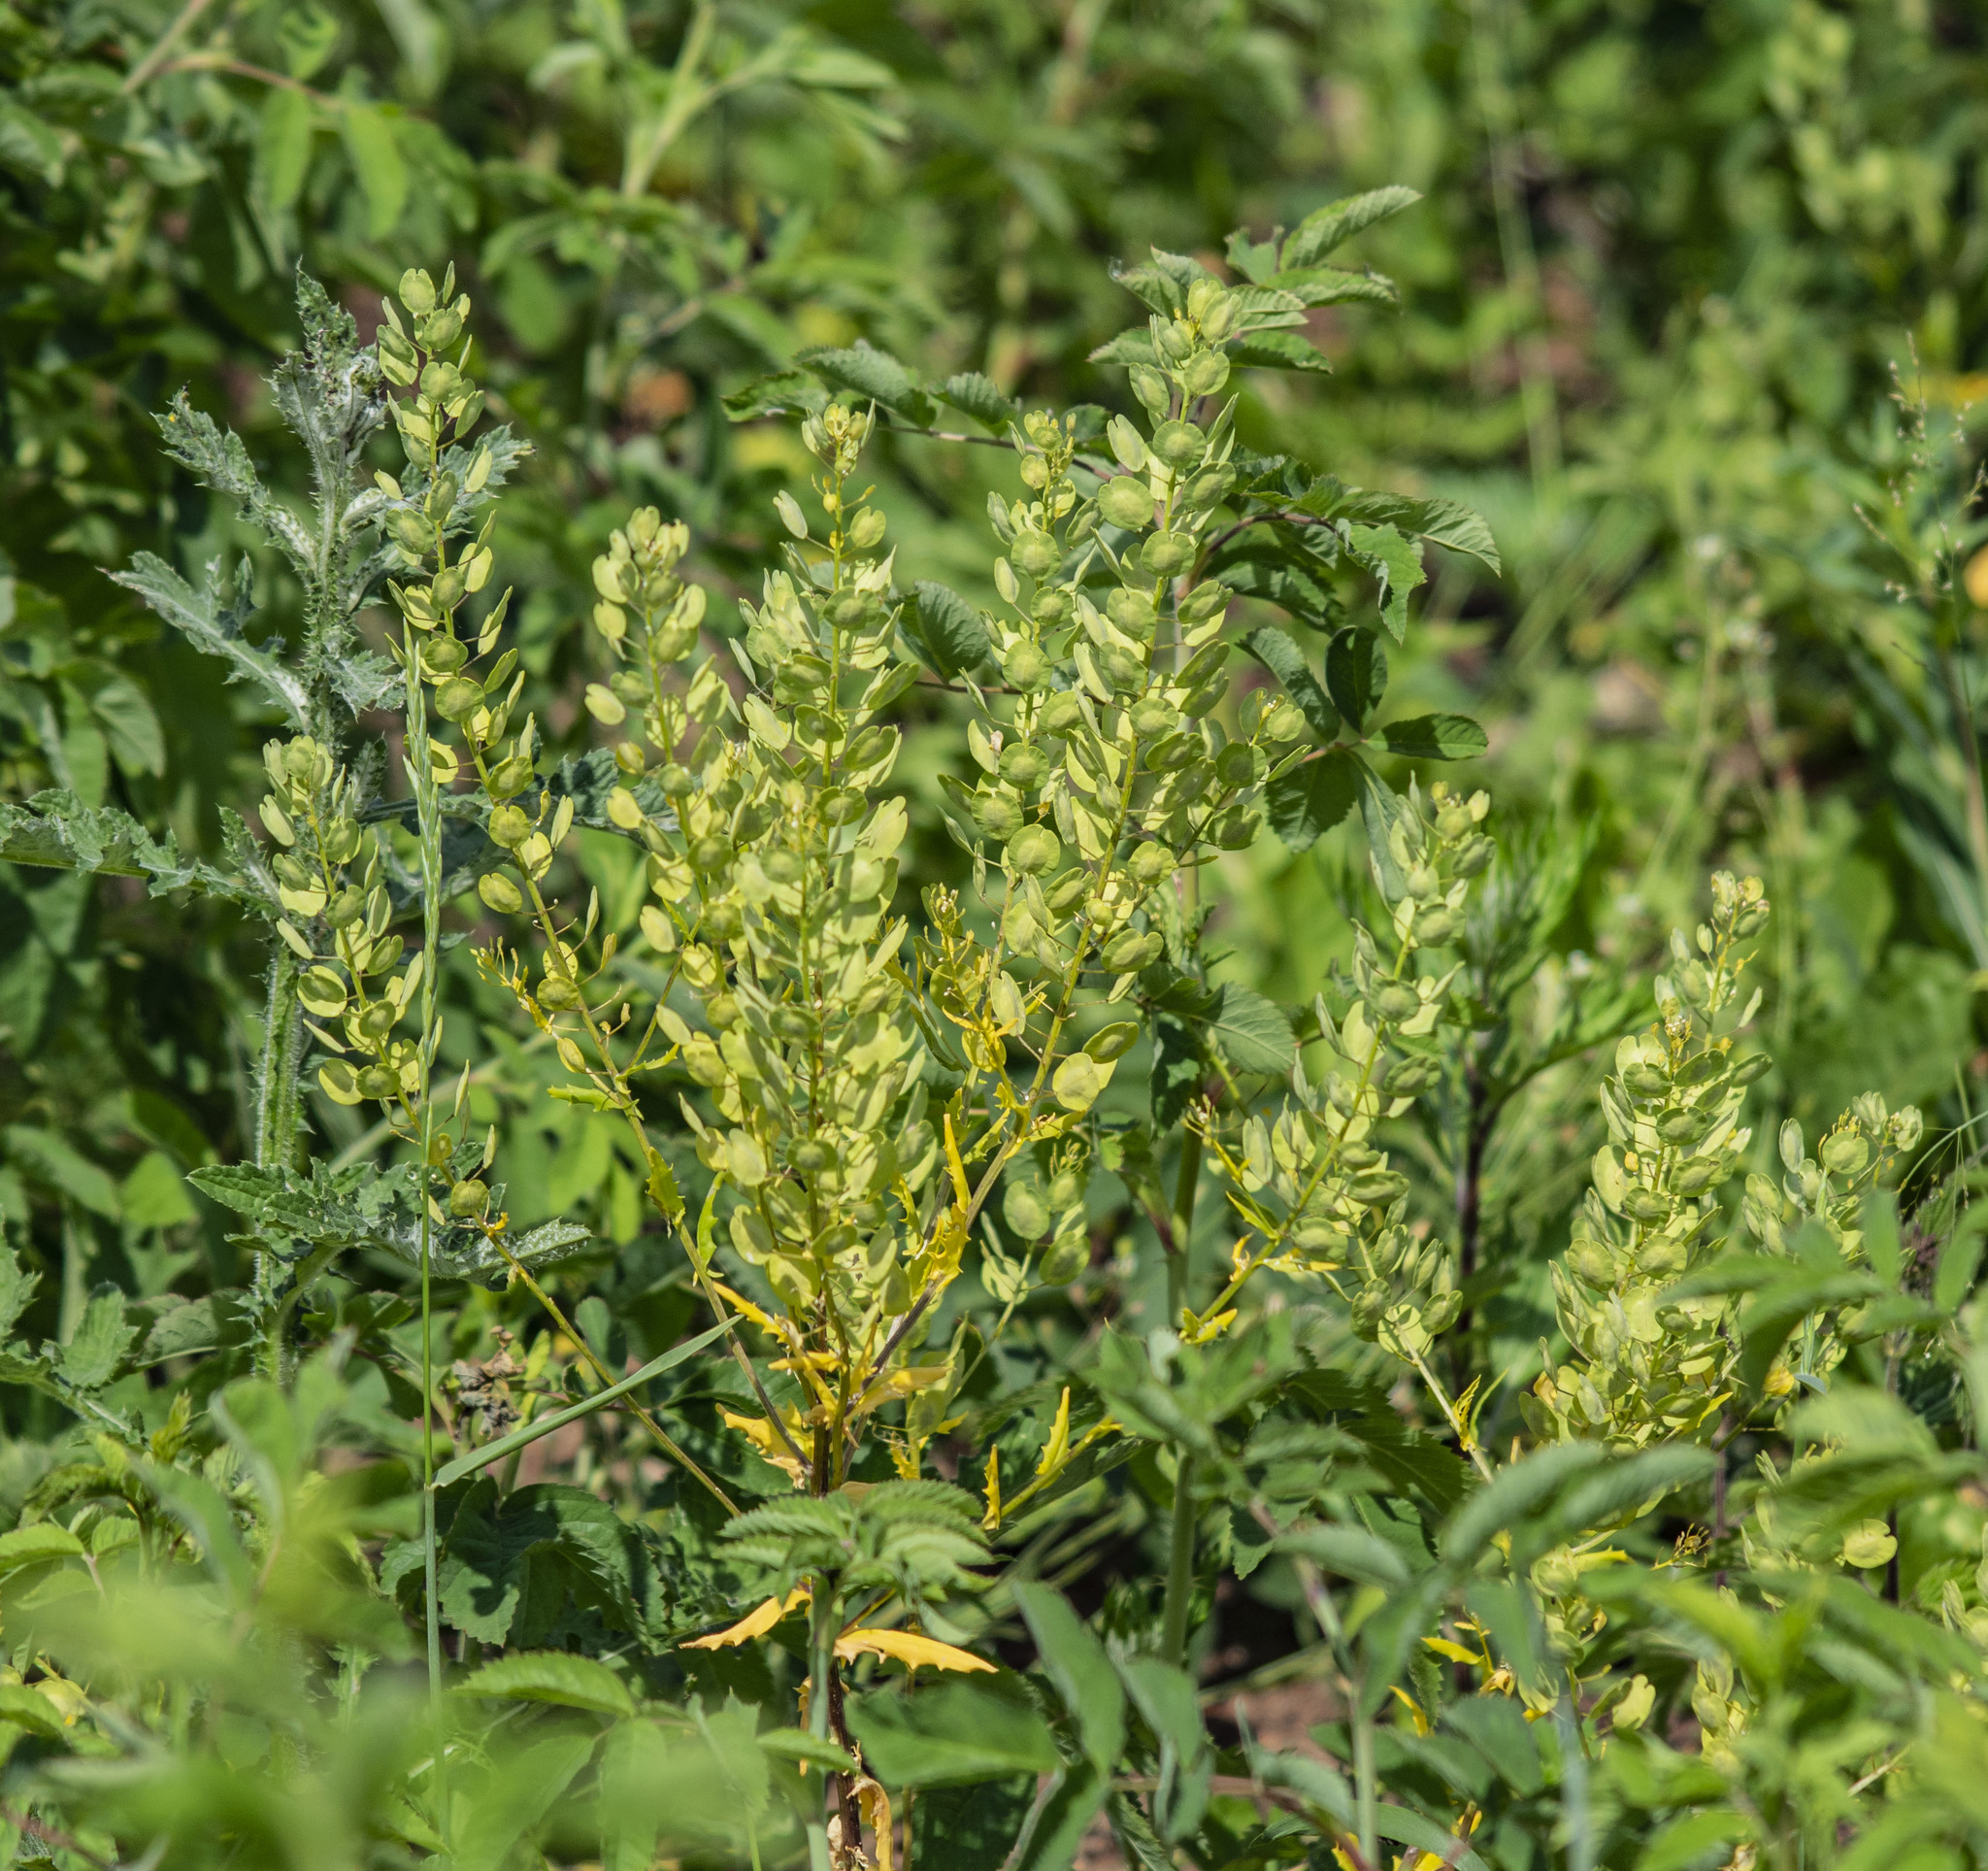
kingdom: Plantae
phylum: Tracheophyta
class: Magnoliopsida
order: Brassicales
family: Brassicaceae
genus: Thlaspi
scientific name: Thlaspi arvense
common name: Field pennycress
